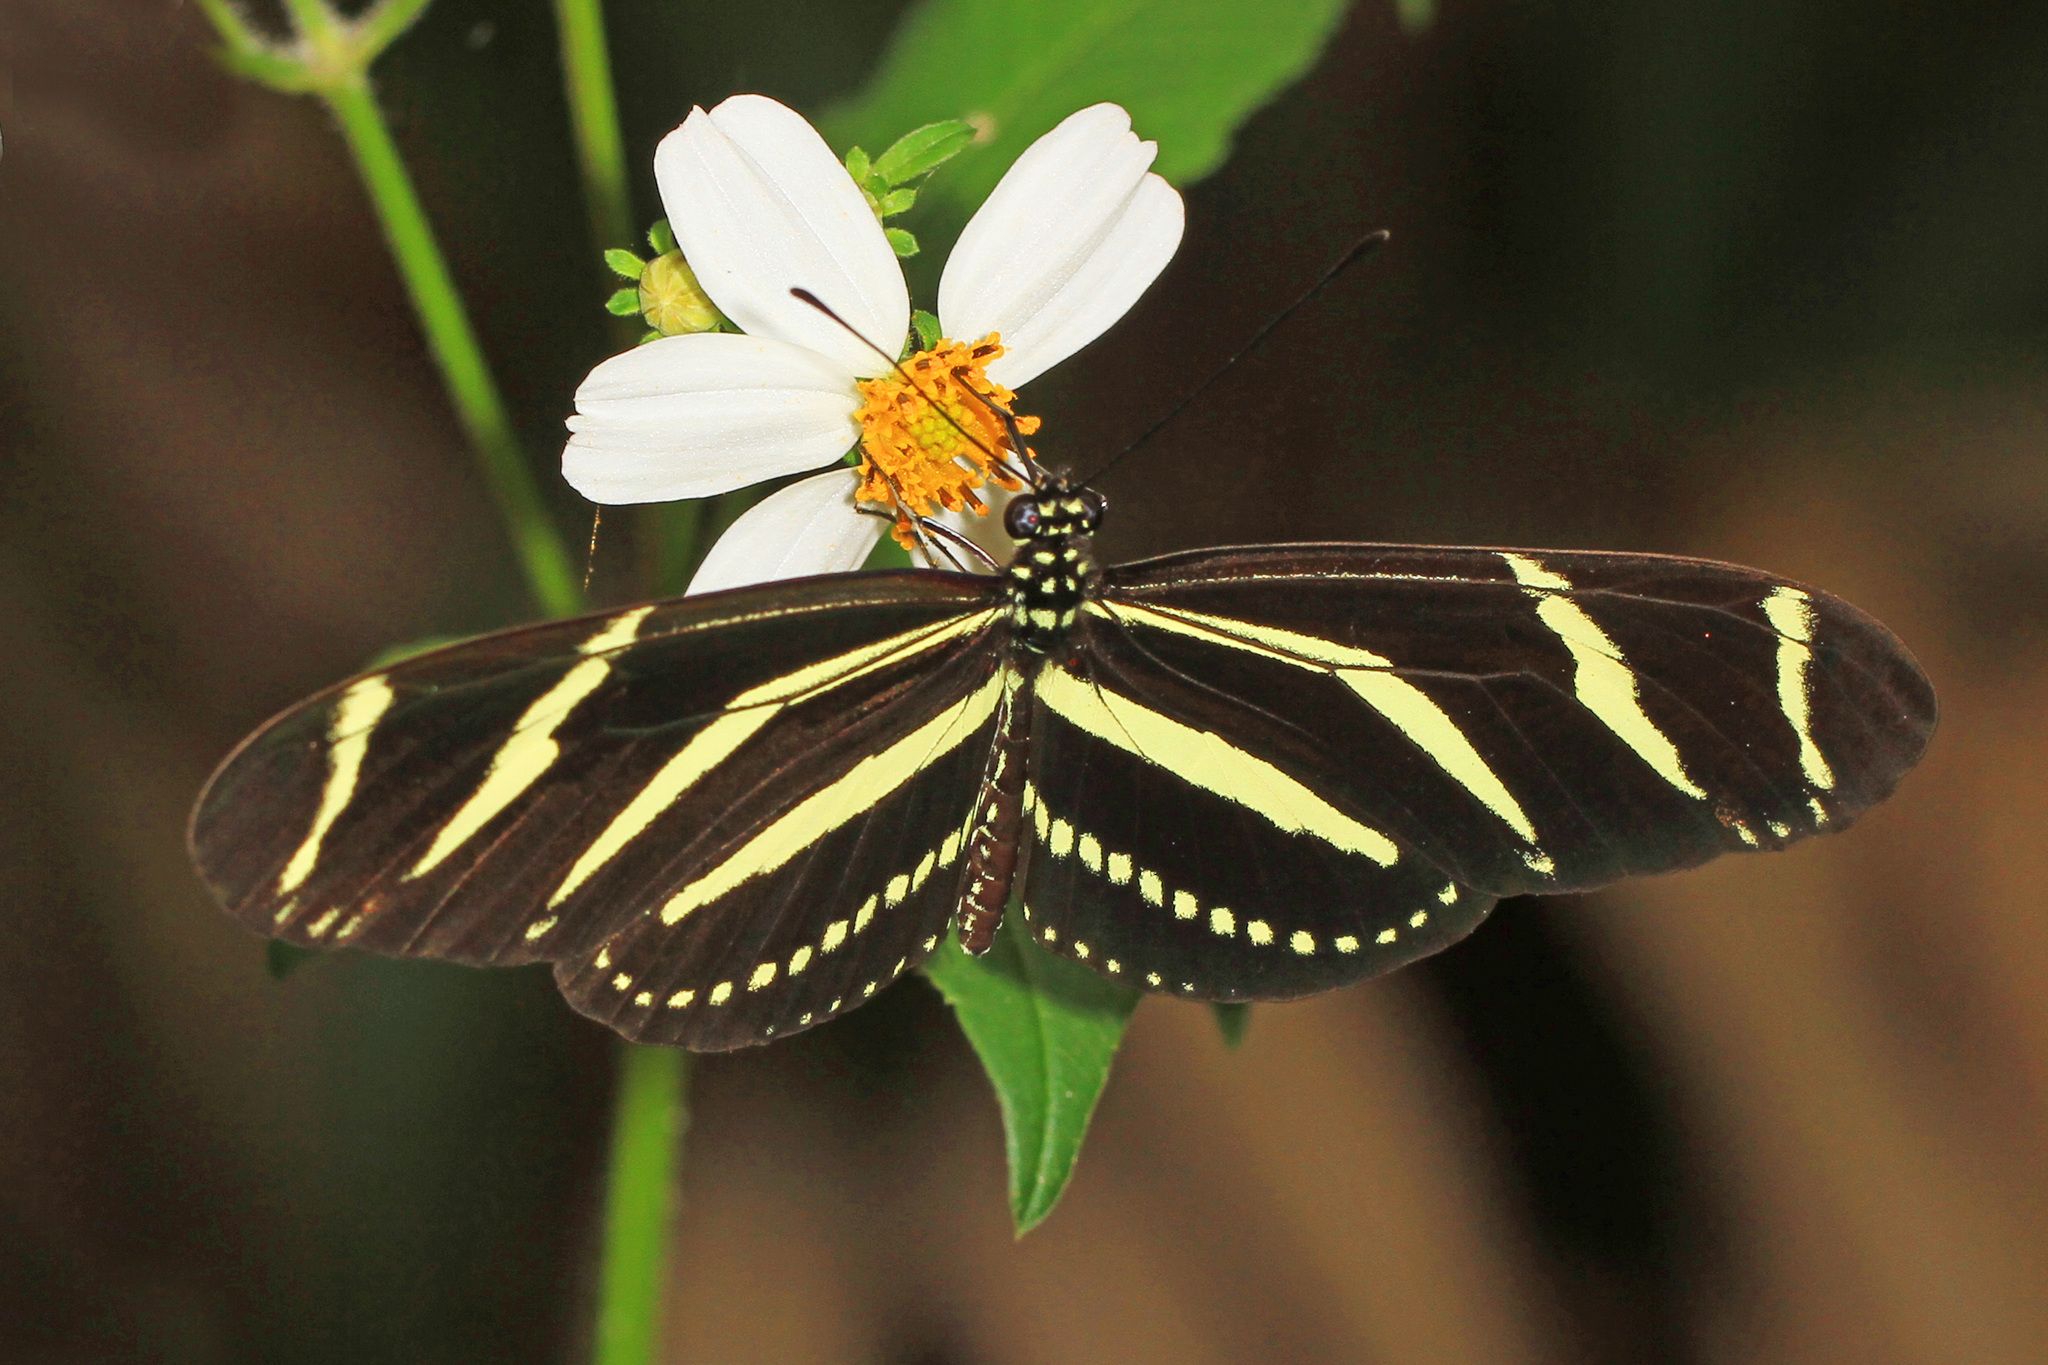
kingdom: Animalia
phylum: Arthropoda
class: Insecta
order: Lepidoptera
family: Nymphalidae
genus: Heliconius
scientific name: Heliconius charithonia
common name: Zebra long wing
